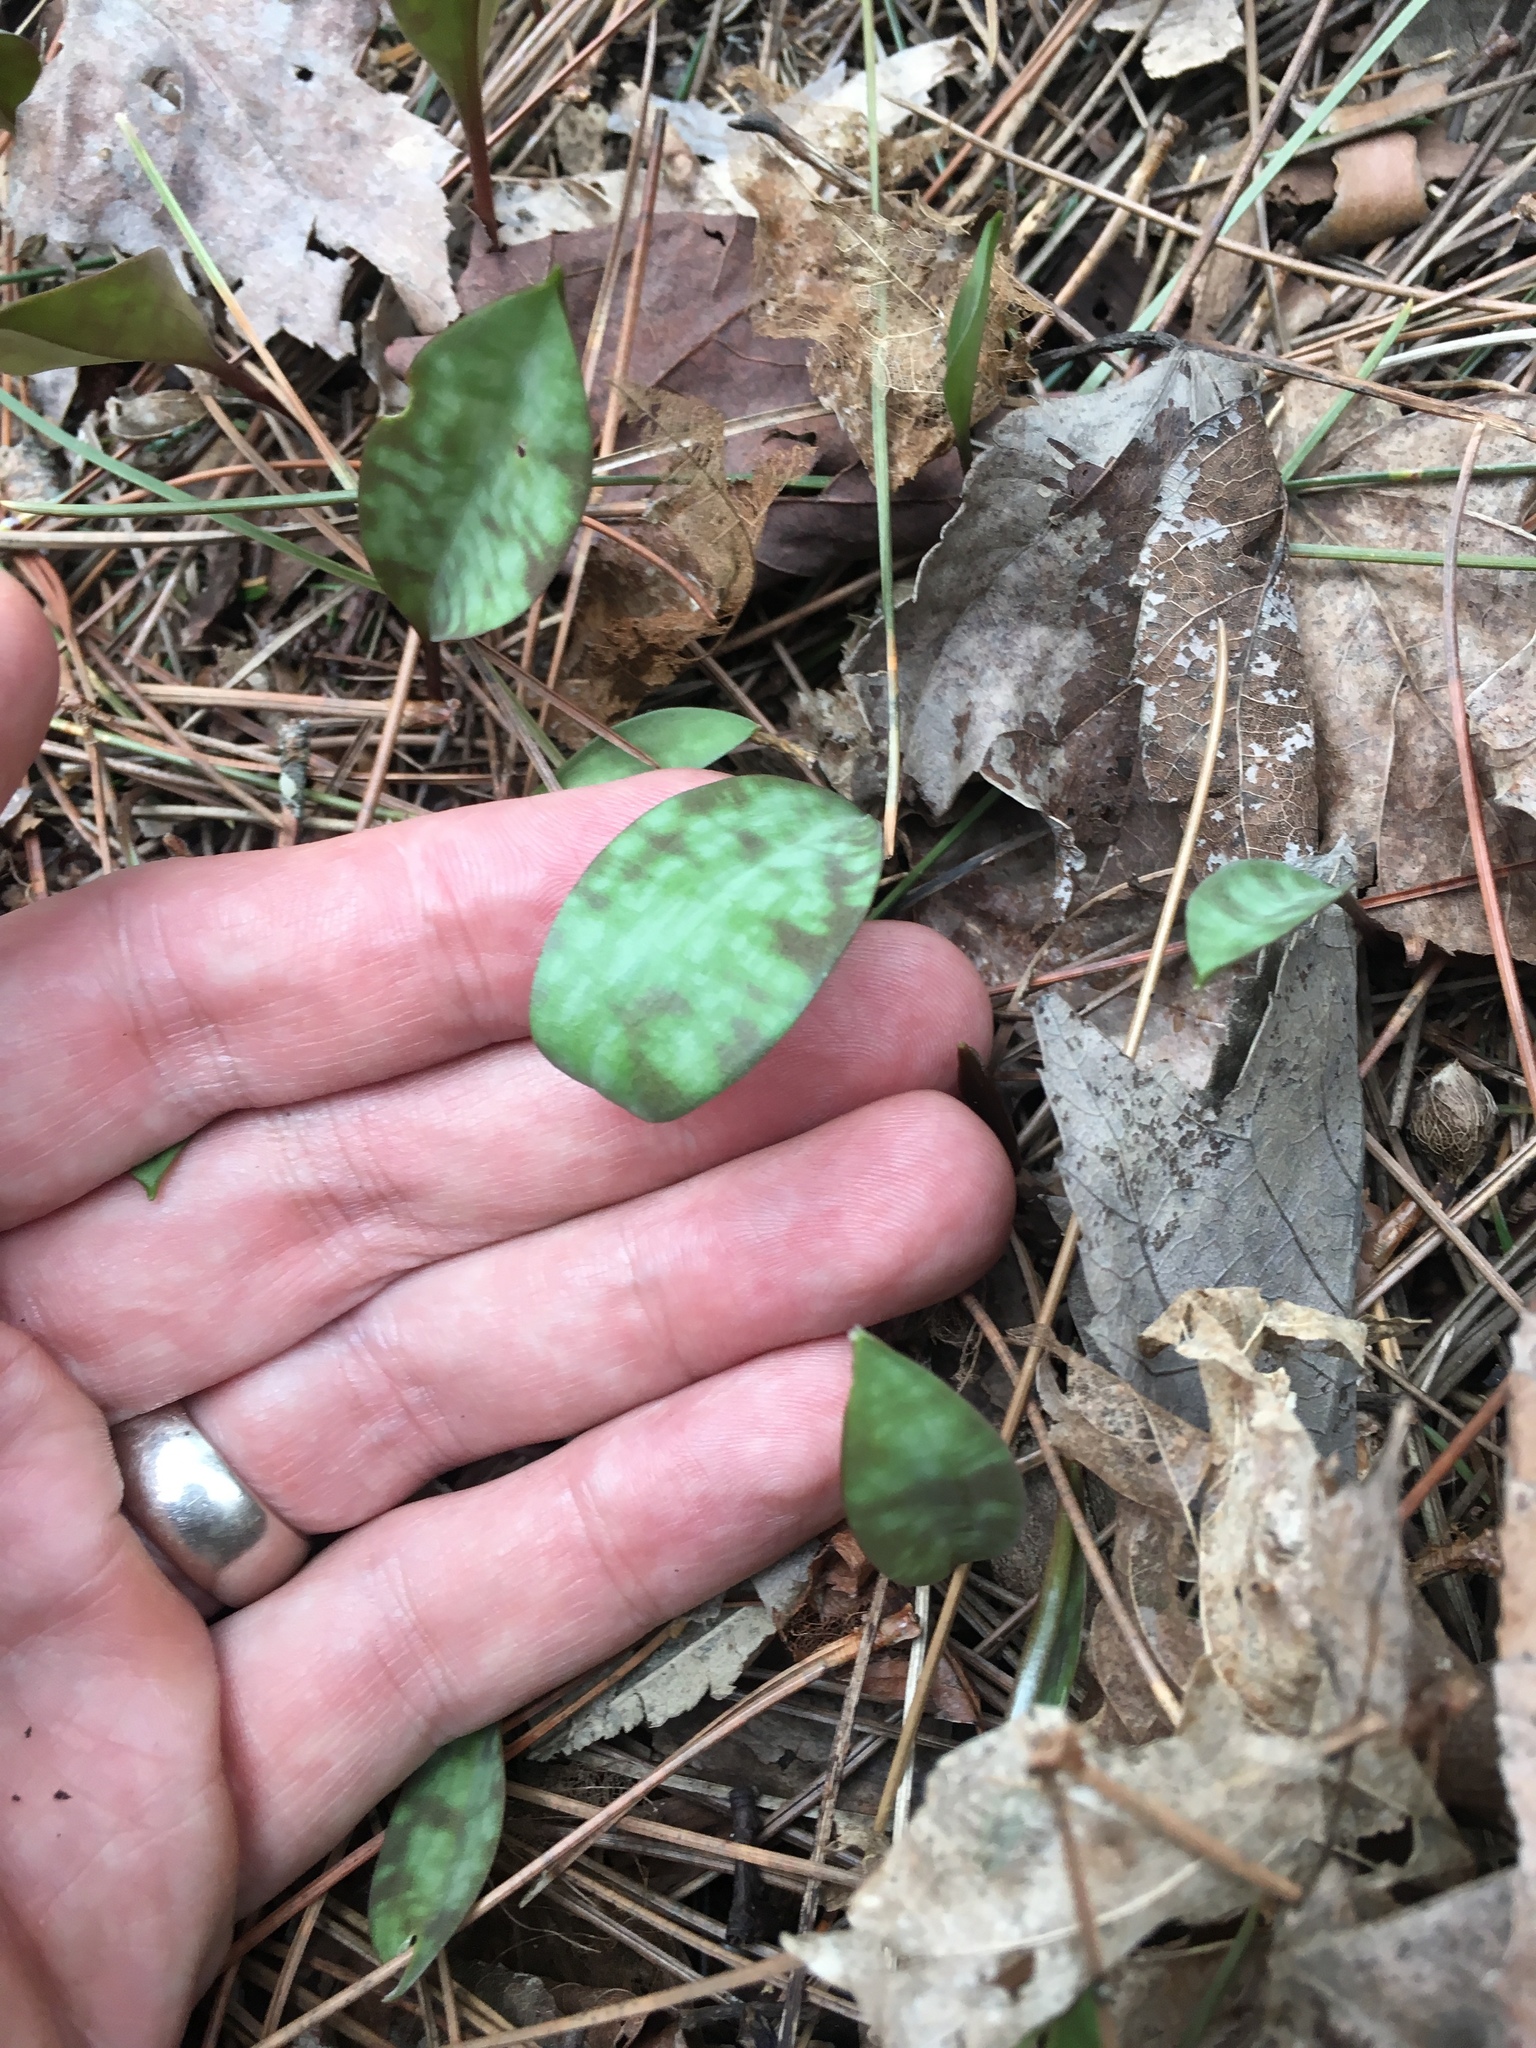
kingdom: Plantae
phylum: Tracheophyta
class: Liliopsida
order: Liliales
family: Liliaceae
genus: Erythronium
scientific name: Erythronium americanum
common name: Yellow adder's-tongue
